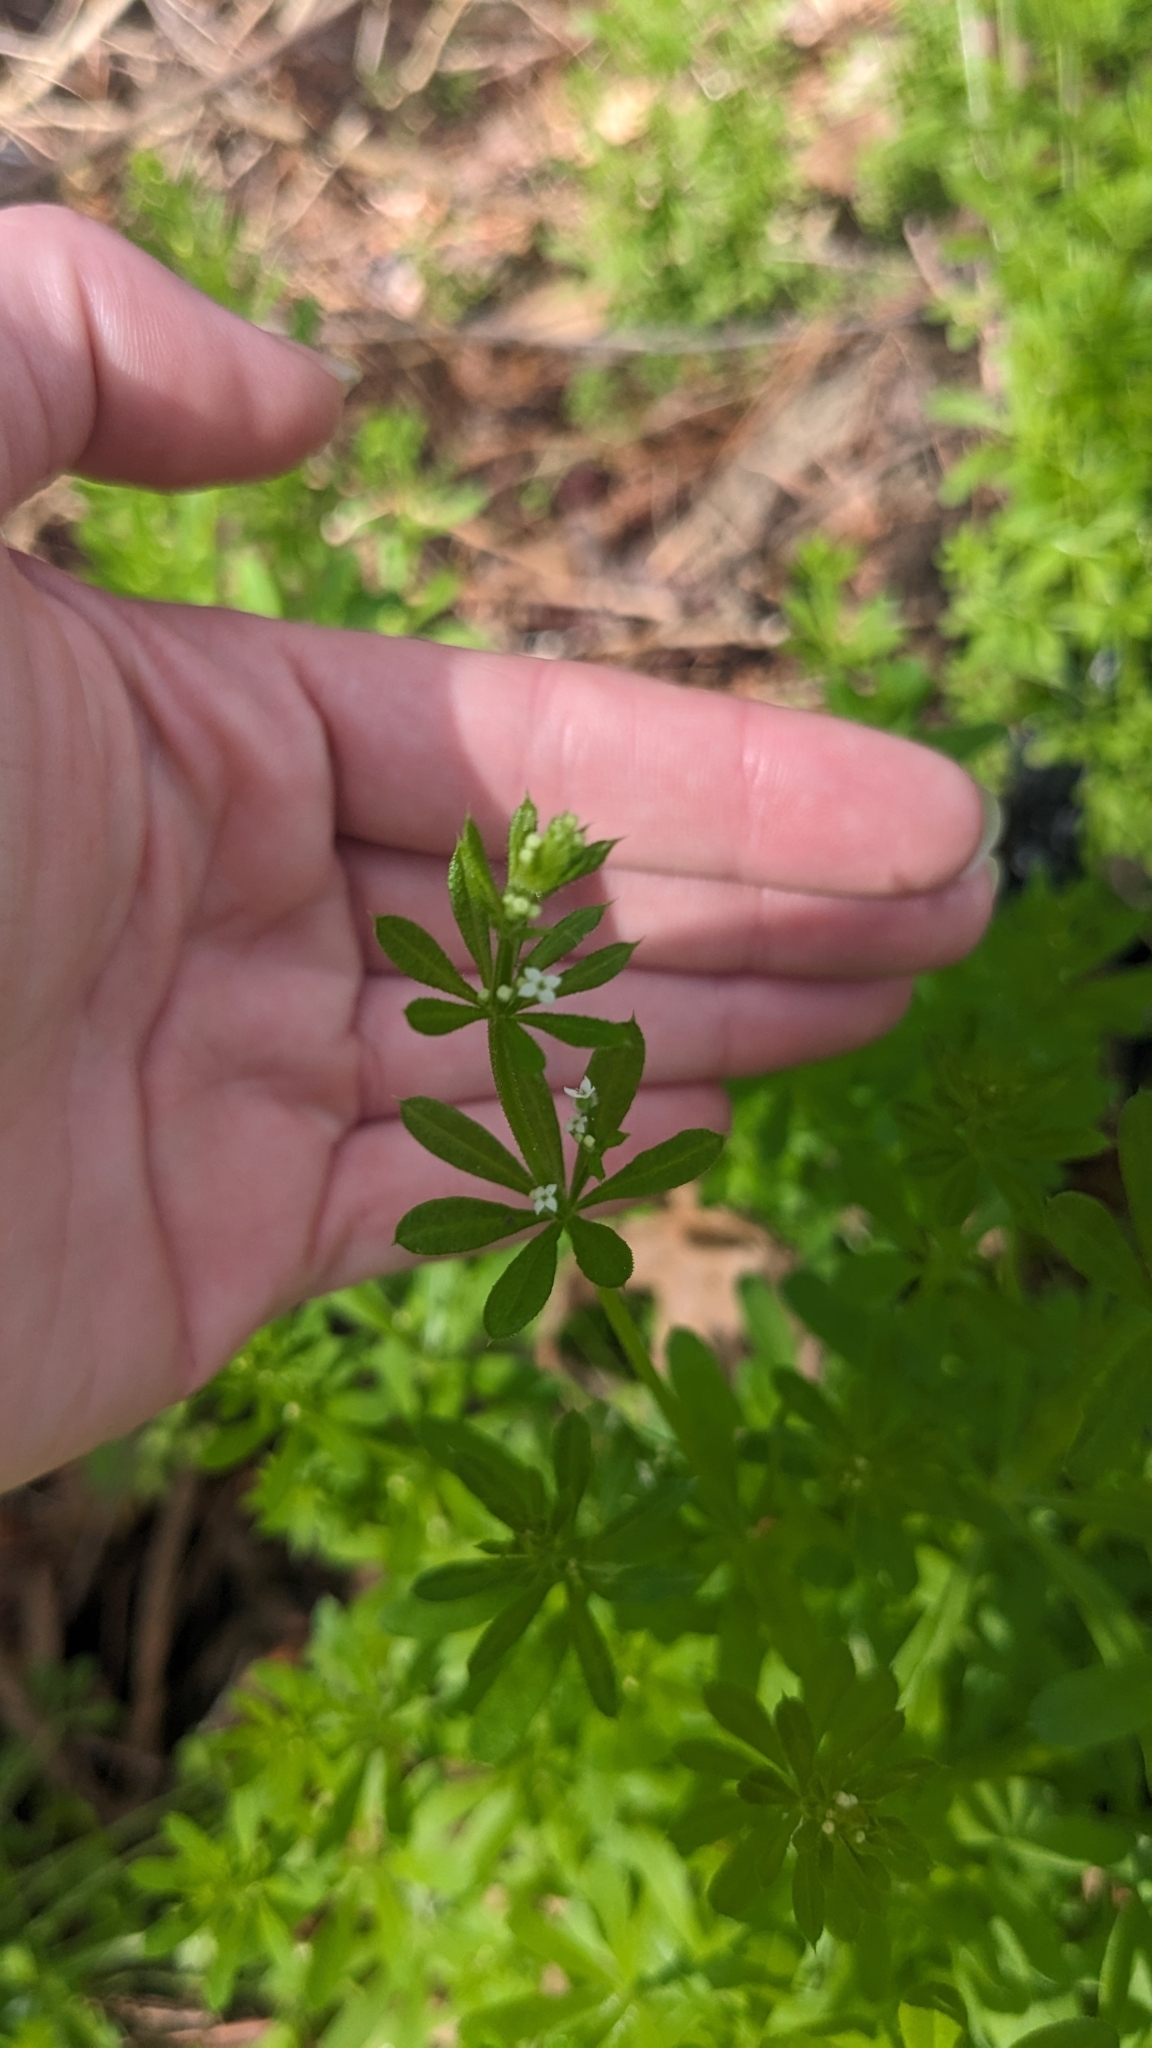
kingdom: Plantae
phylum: Tracheophyta
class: Magnoliopsida
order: Gentianales
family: Rubiaceae
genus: Galium
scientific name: Galium aparine
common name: Cleavers
